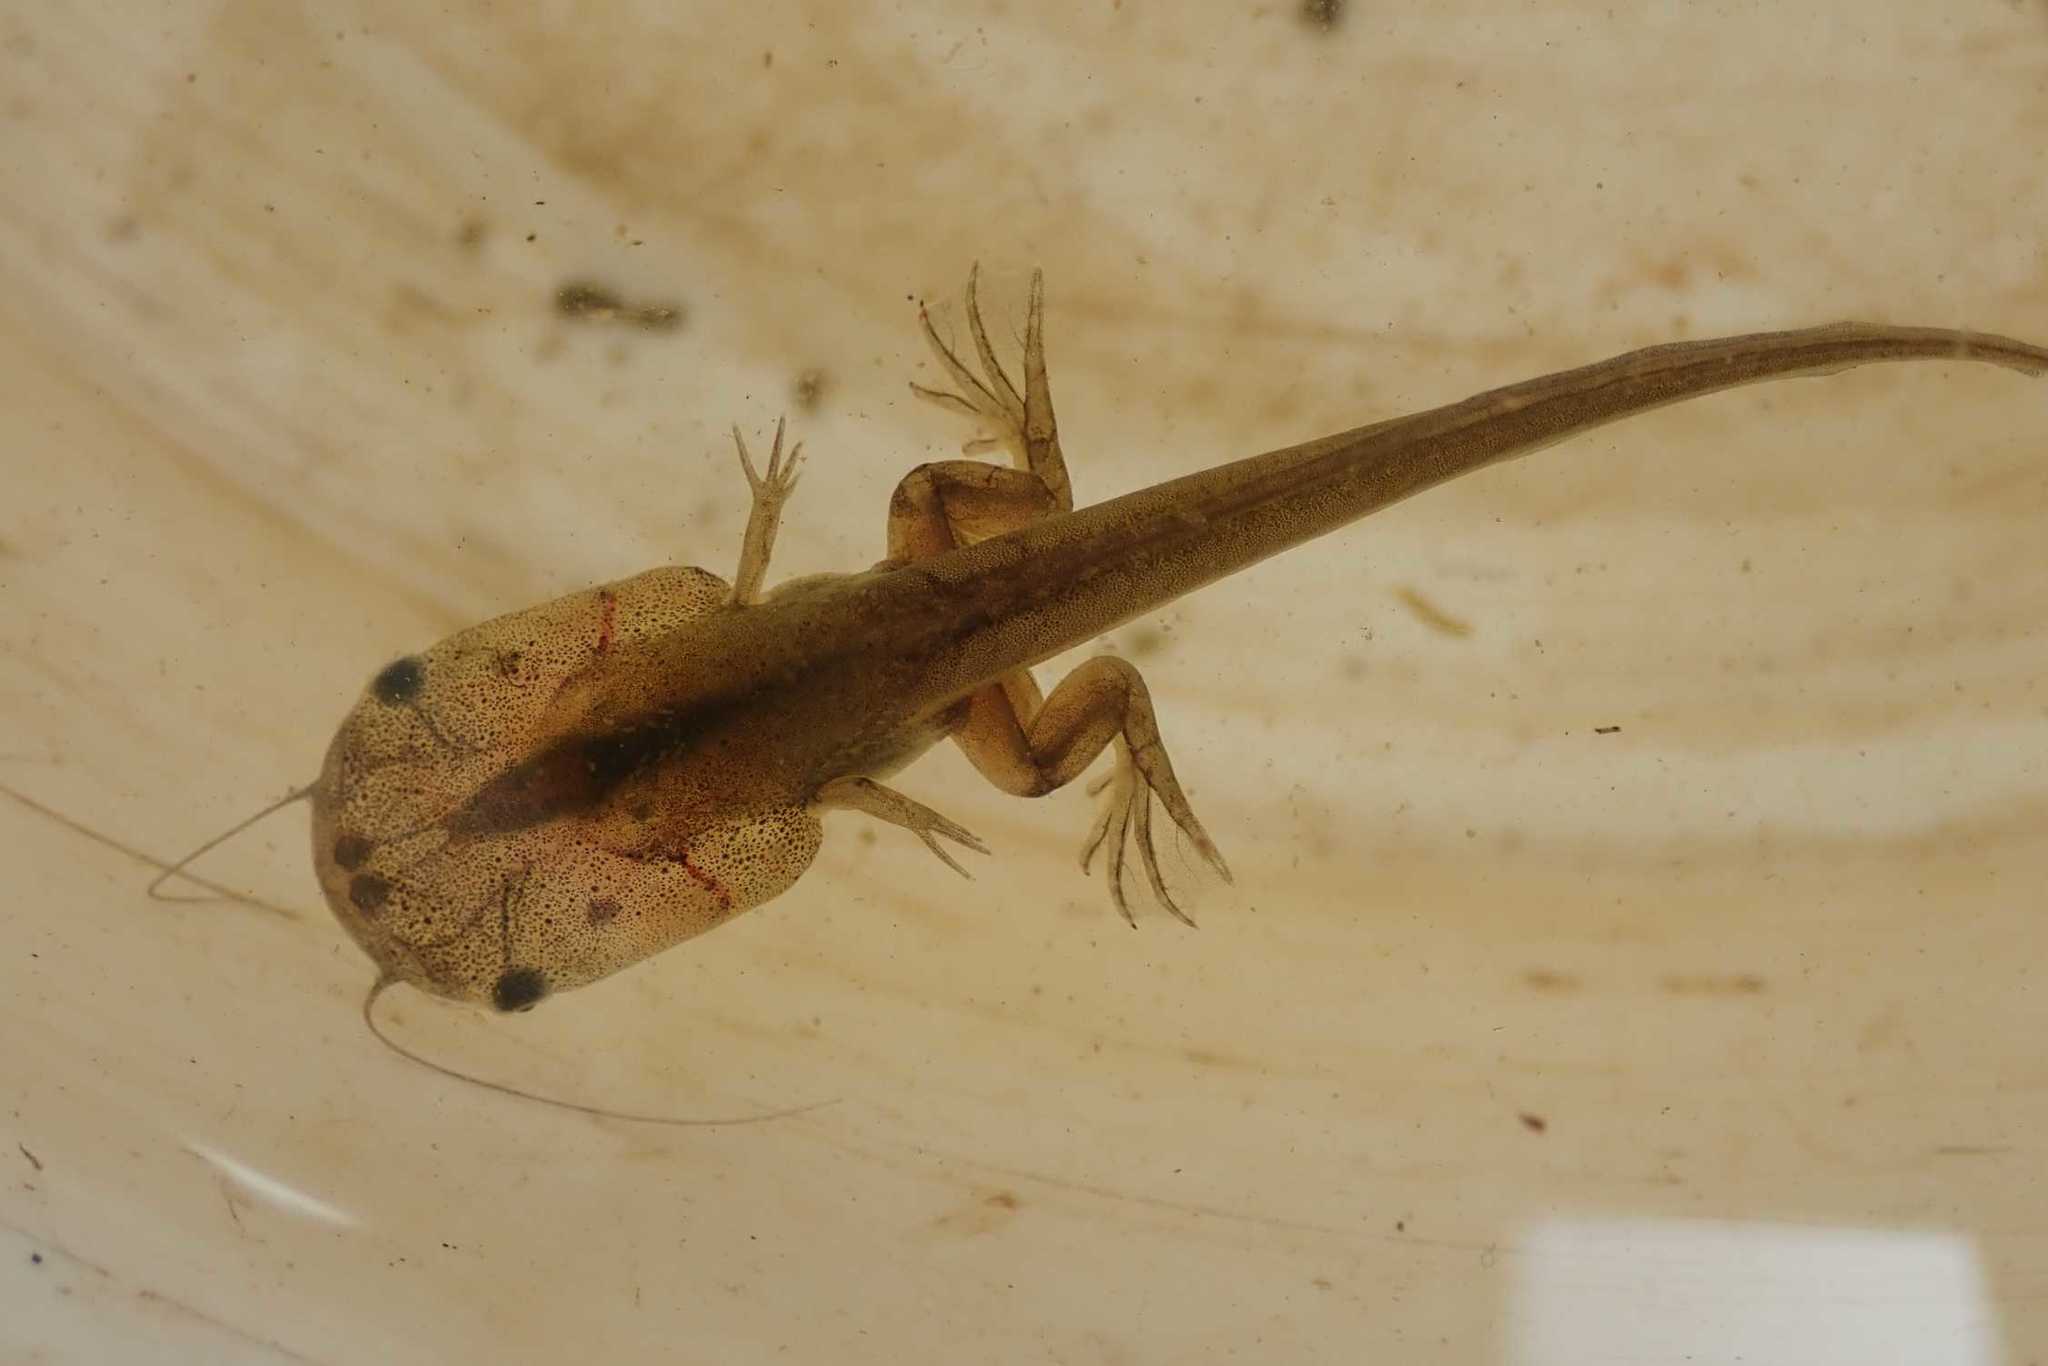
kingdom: Animalia
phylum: Chordata
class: Amphibia
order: Anura
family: Pipidae
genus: Xenopus
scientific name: Xenopus laevis
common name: African clawed frog
